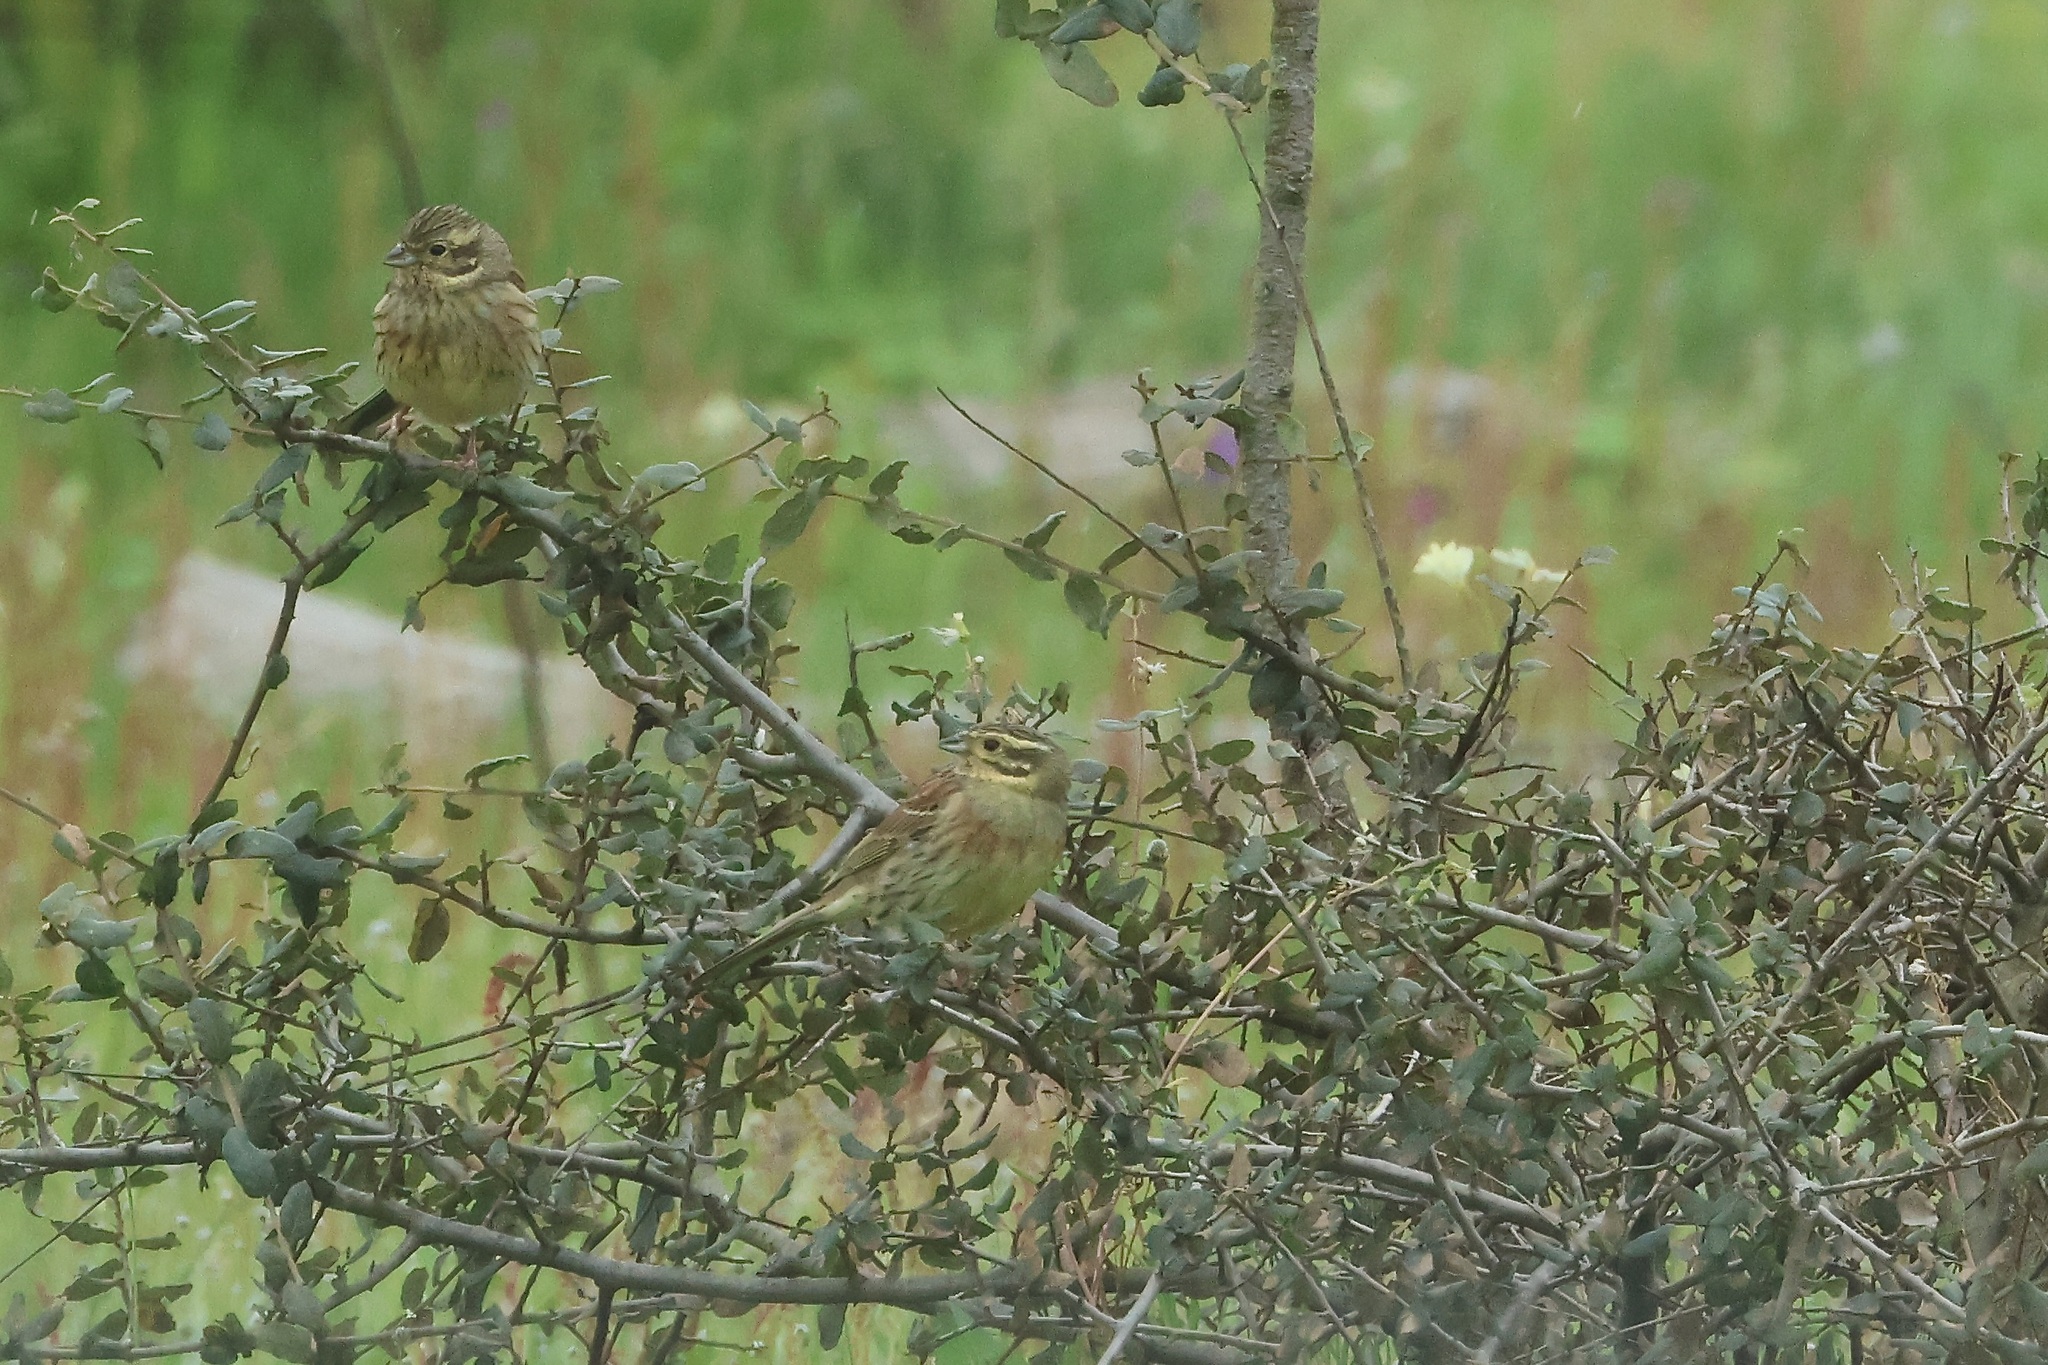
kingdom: Animalia
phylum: Chordata
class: Aves
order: Passeriformes
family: Emberizidae
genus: Emberiza
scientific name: Emberiza cirlus
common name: Cirl bunting
